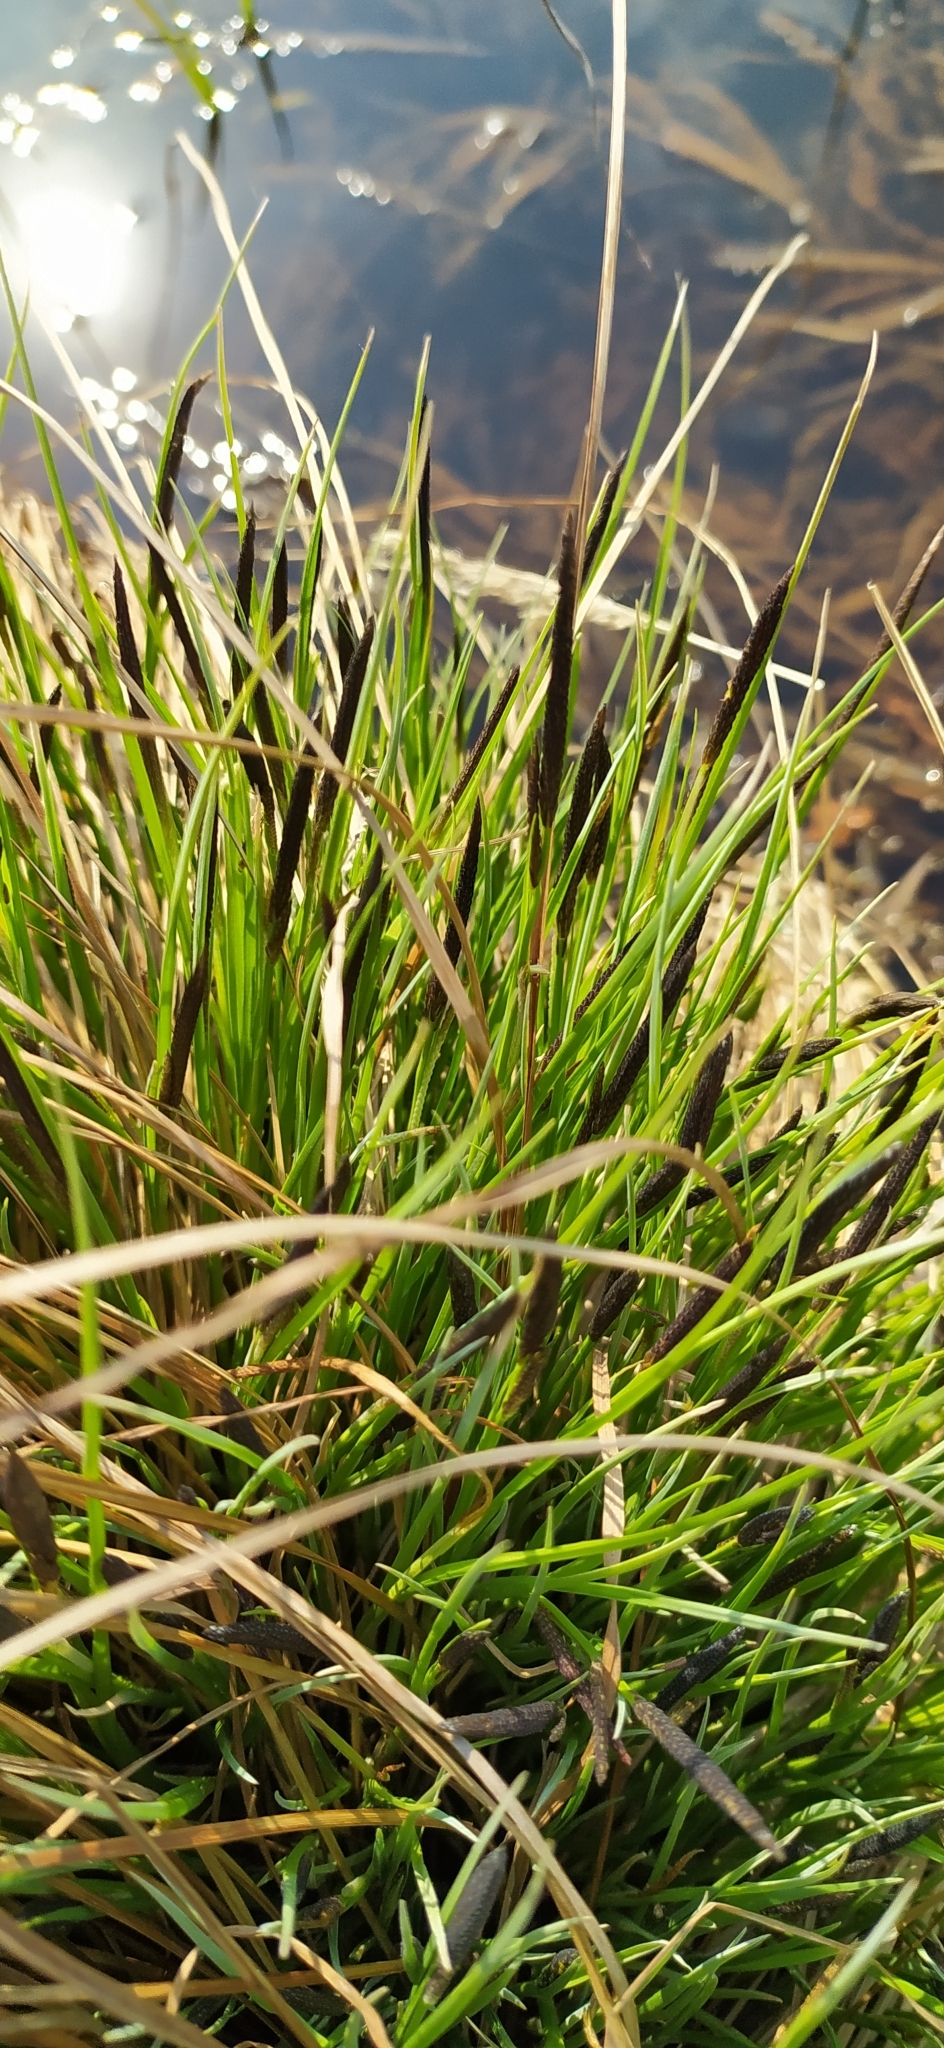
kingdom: Plantae
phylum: Tracheophyta
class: Liliopsida
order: Poales
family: Cyperaceae
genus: Carex
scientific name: Carex cespitosa
